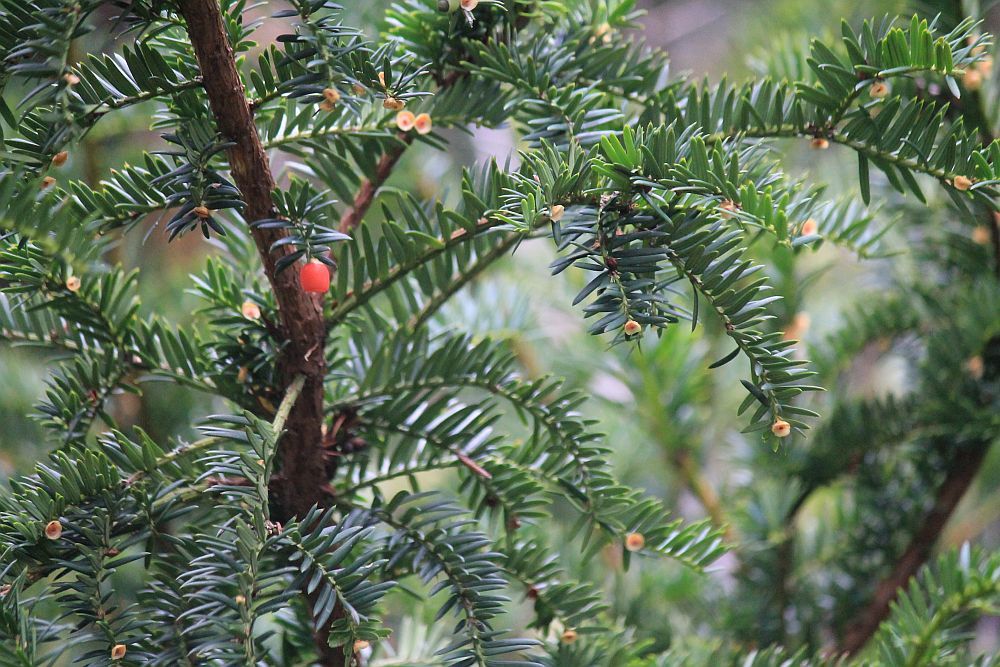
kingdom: Plantae
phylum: Tracheophyta
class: Pinopsida
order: Pinales
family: Taxaceae
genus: Taxus
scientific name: Taxus baccata
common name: Yew
